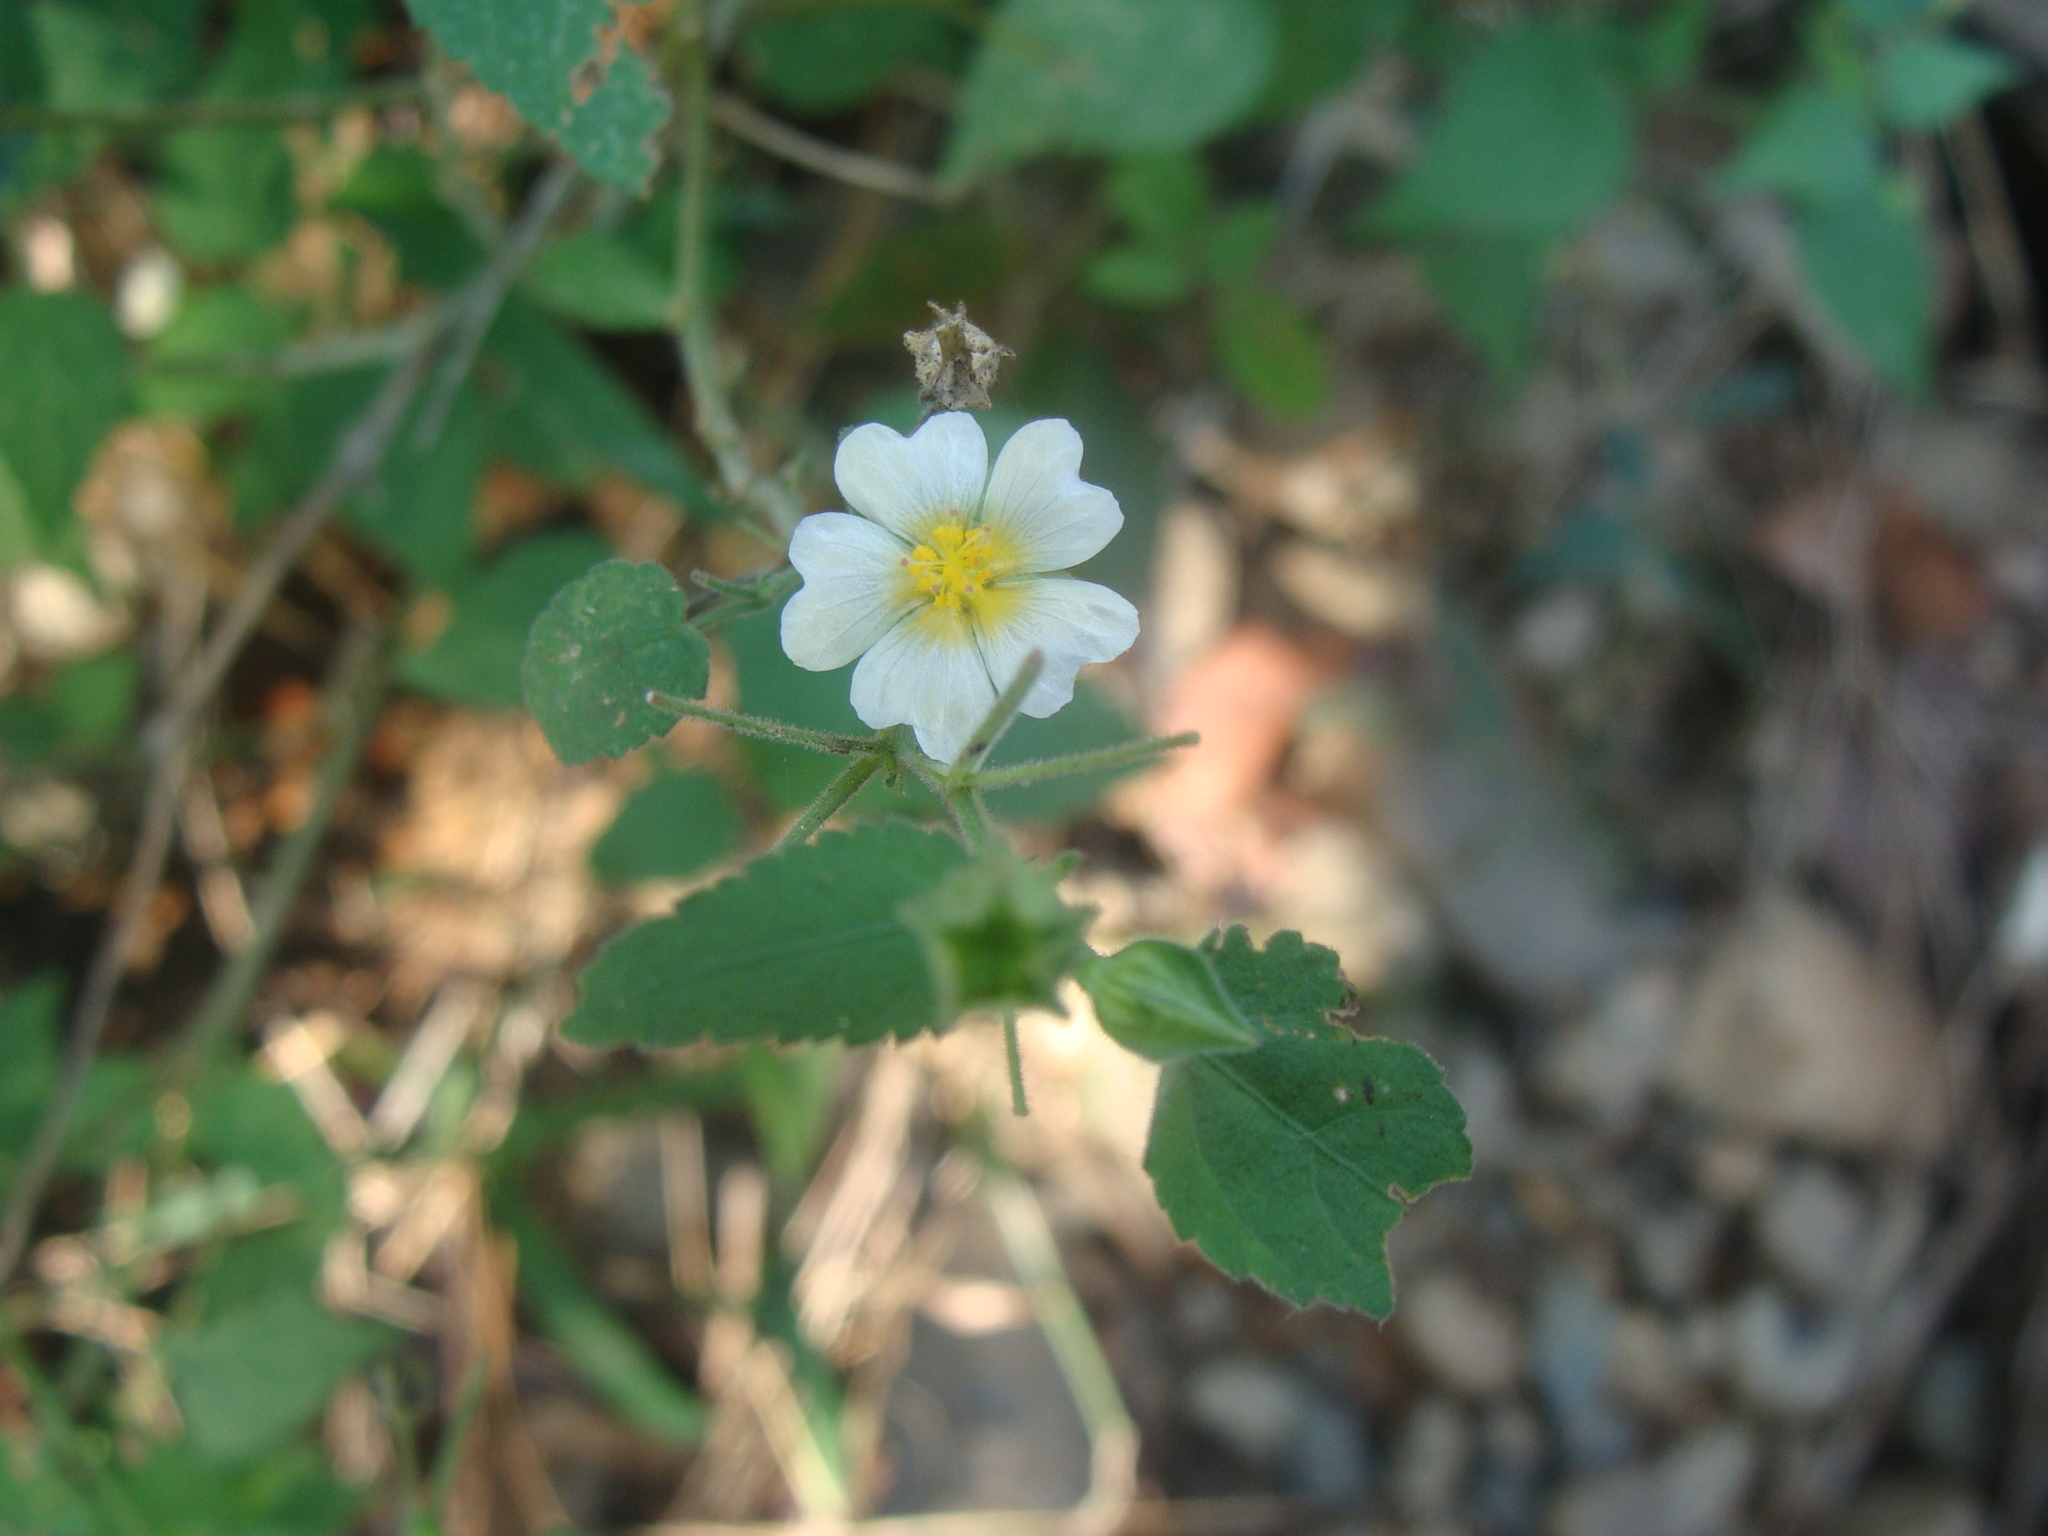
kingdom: Plantae
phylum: Tracheophyta
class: Magnoliopsida
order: Malvales
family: Malvaceae
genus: Herissantia
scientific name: Herissantia crispa
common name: Bladdermallow
